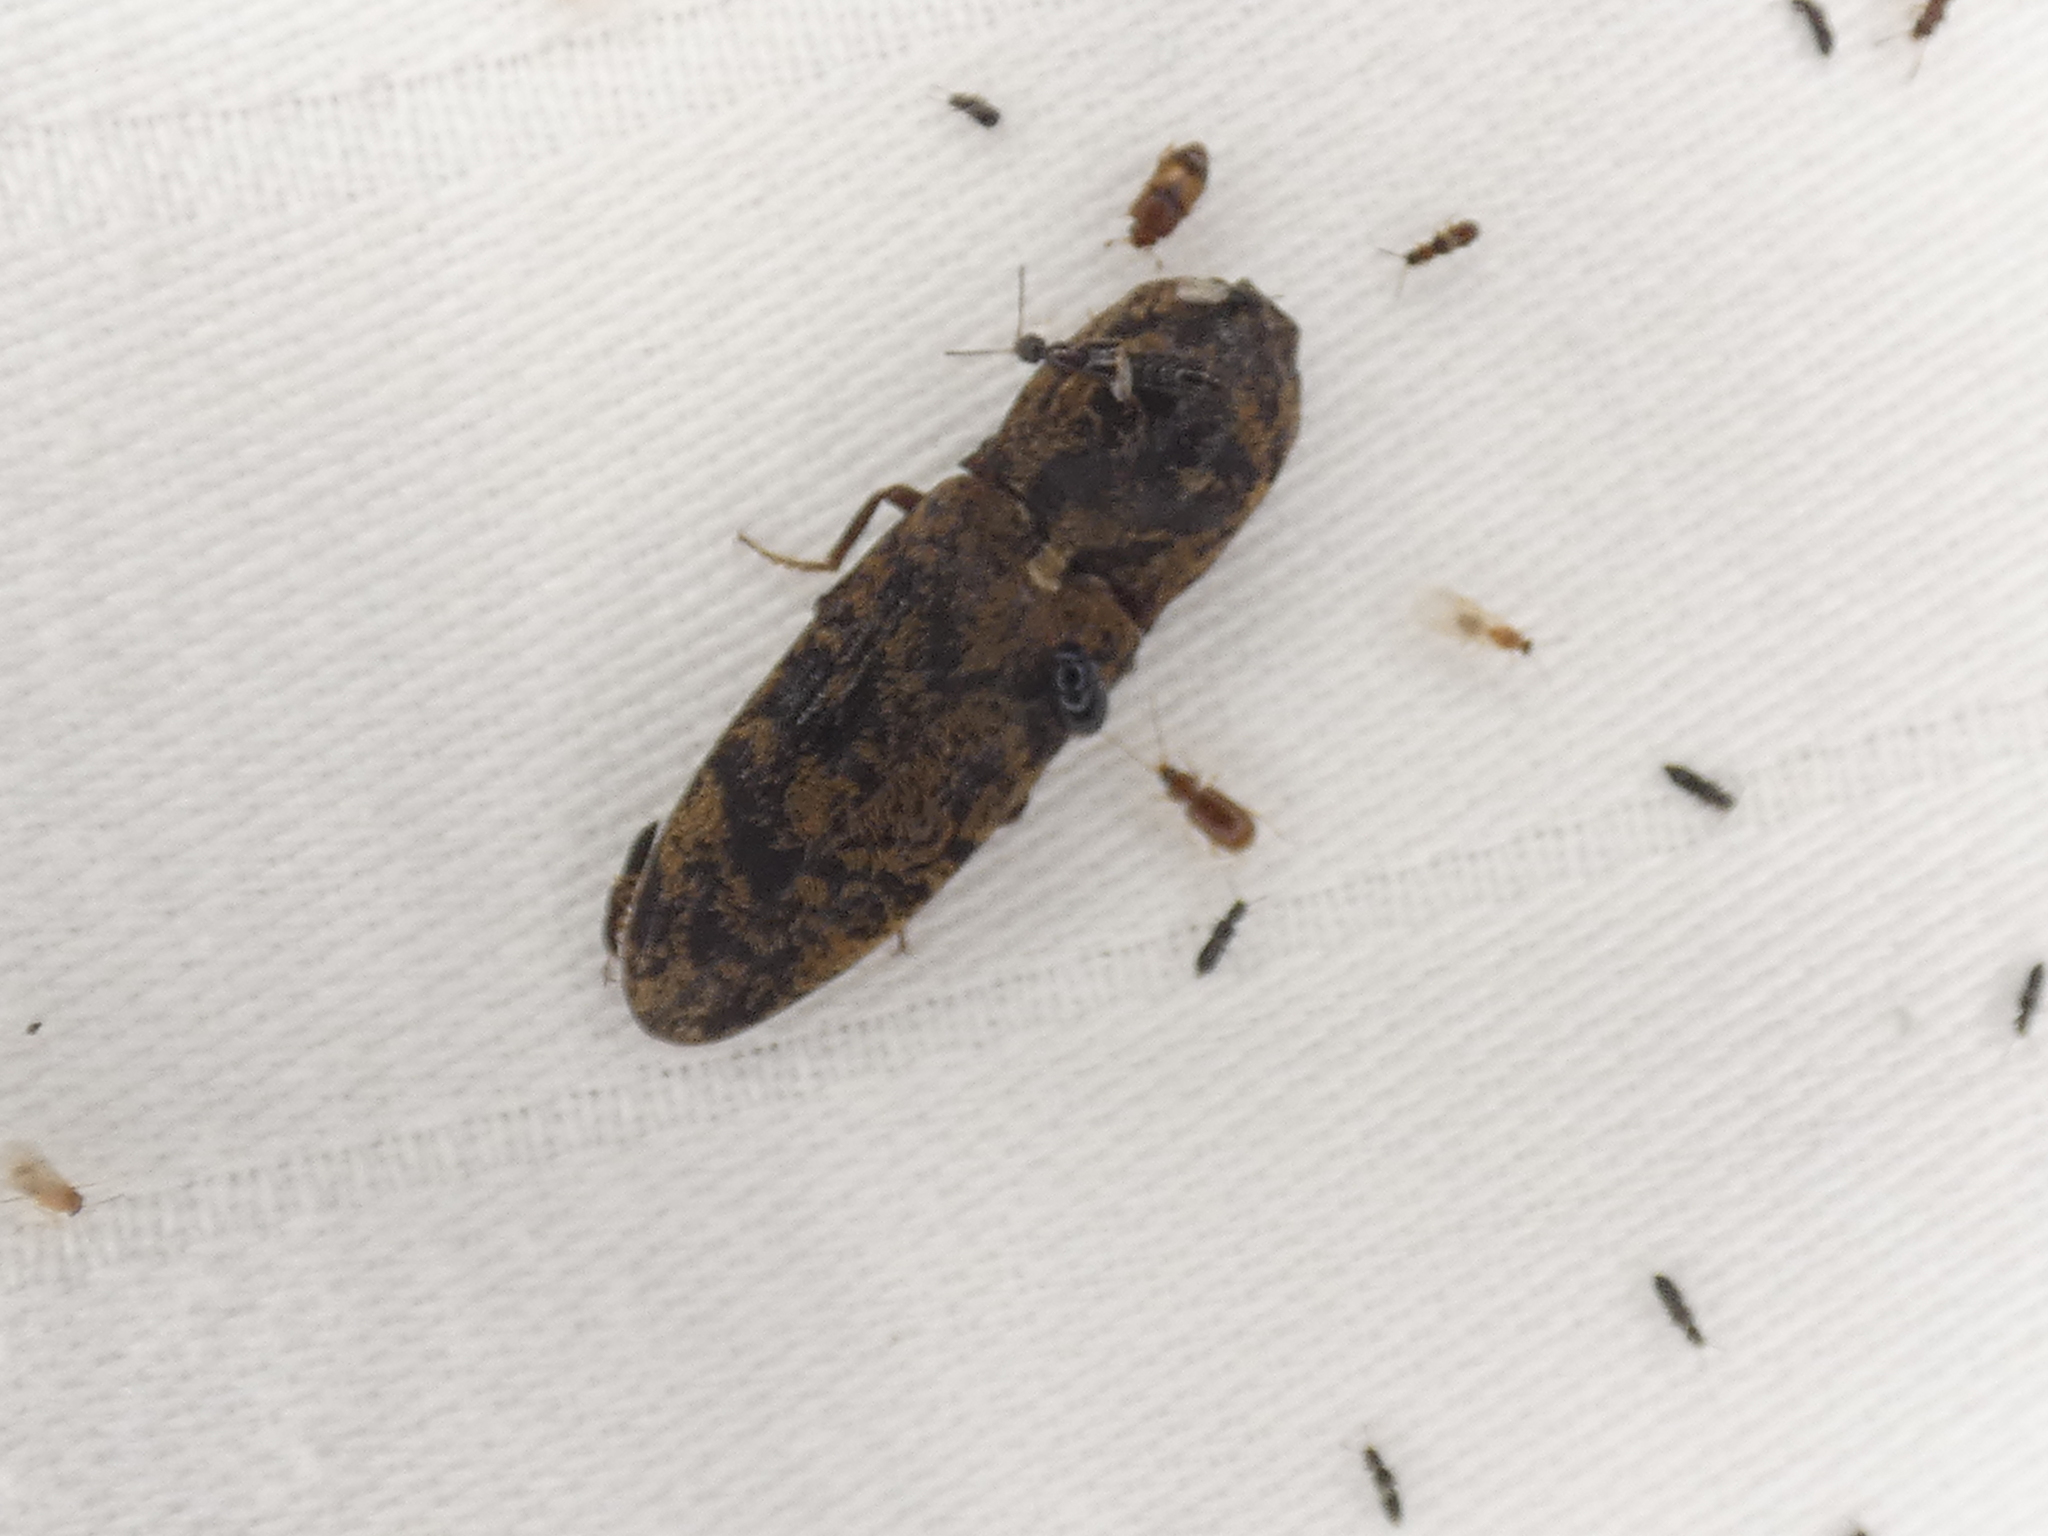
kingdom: Animalia
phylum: Arthropoda
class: Insecta
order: Coleoptera
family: Elateridae
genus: Lacon
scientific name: Lacon marmoratus
